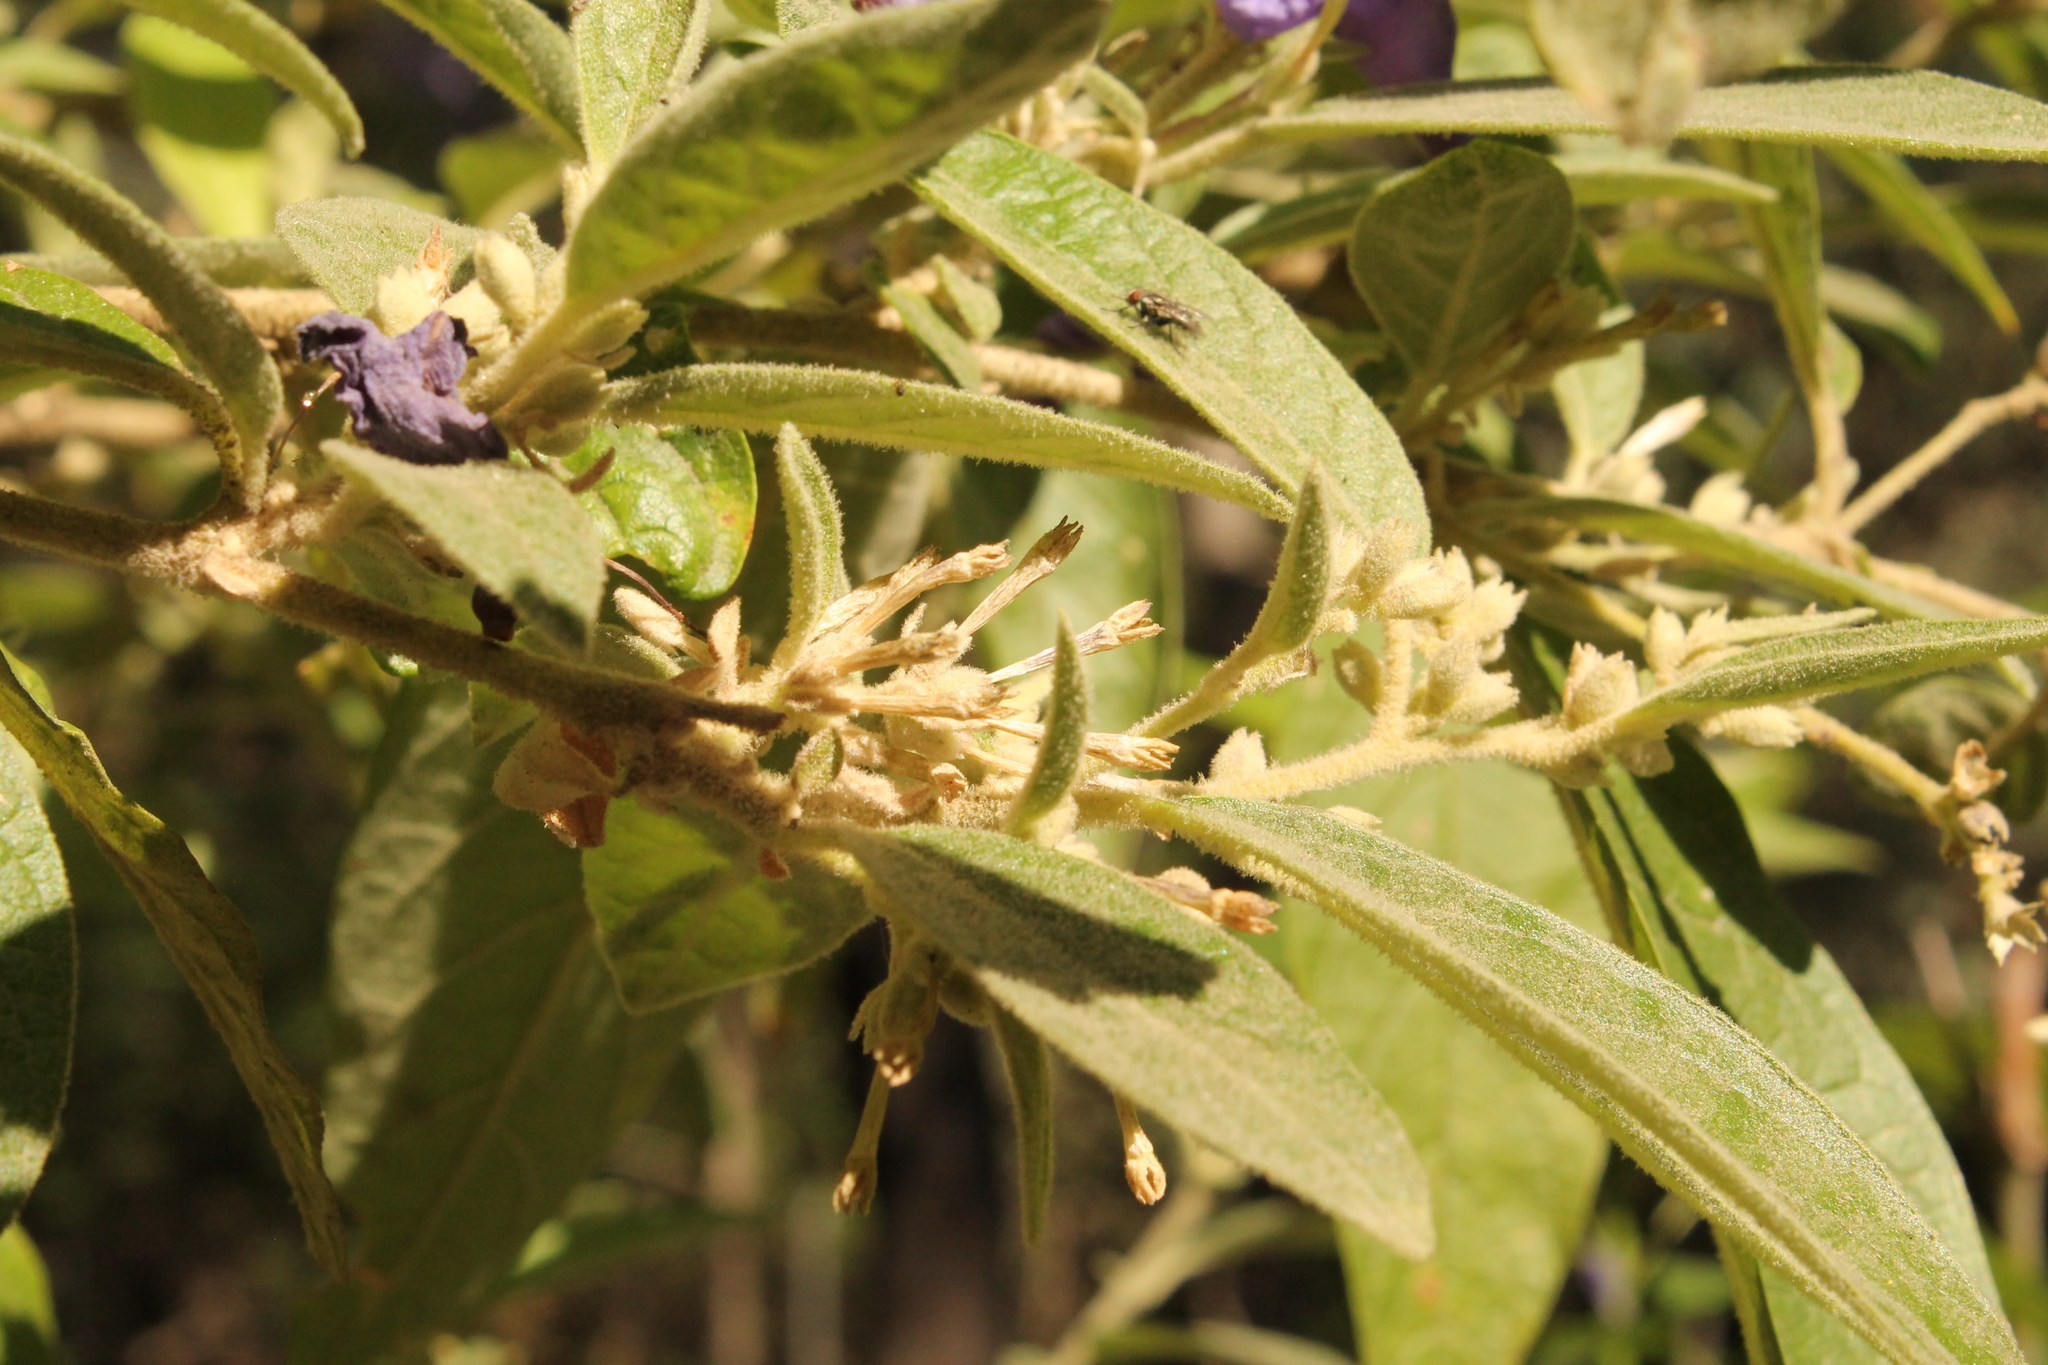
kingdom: Plantae
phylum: Tracheophyta
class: Magnoliopsida
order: Solanales
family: Solanaceae
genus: Cestrum
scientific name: Cestrum tomentosum
